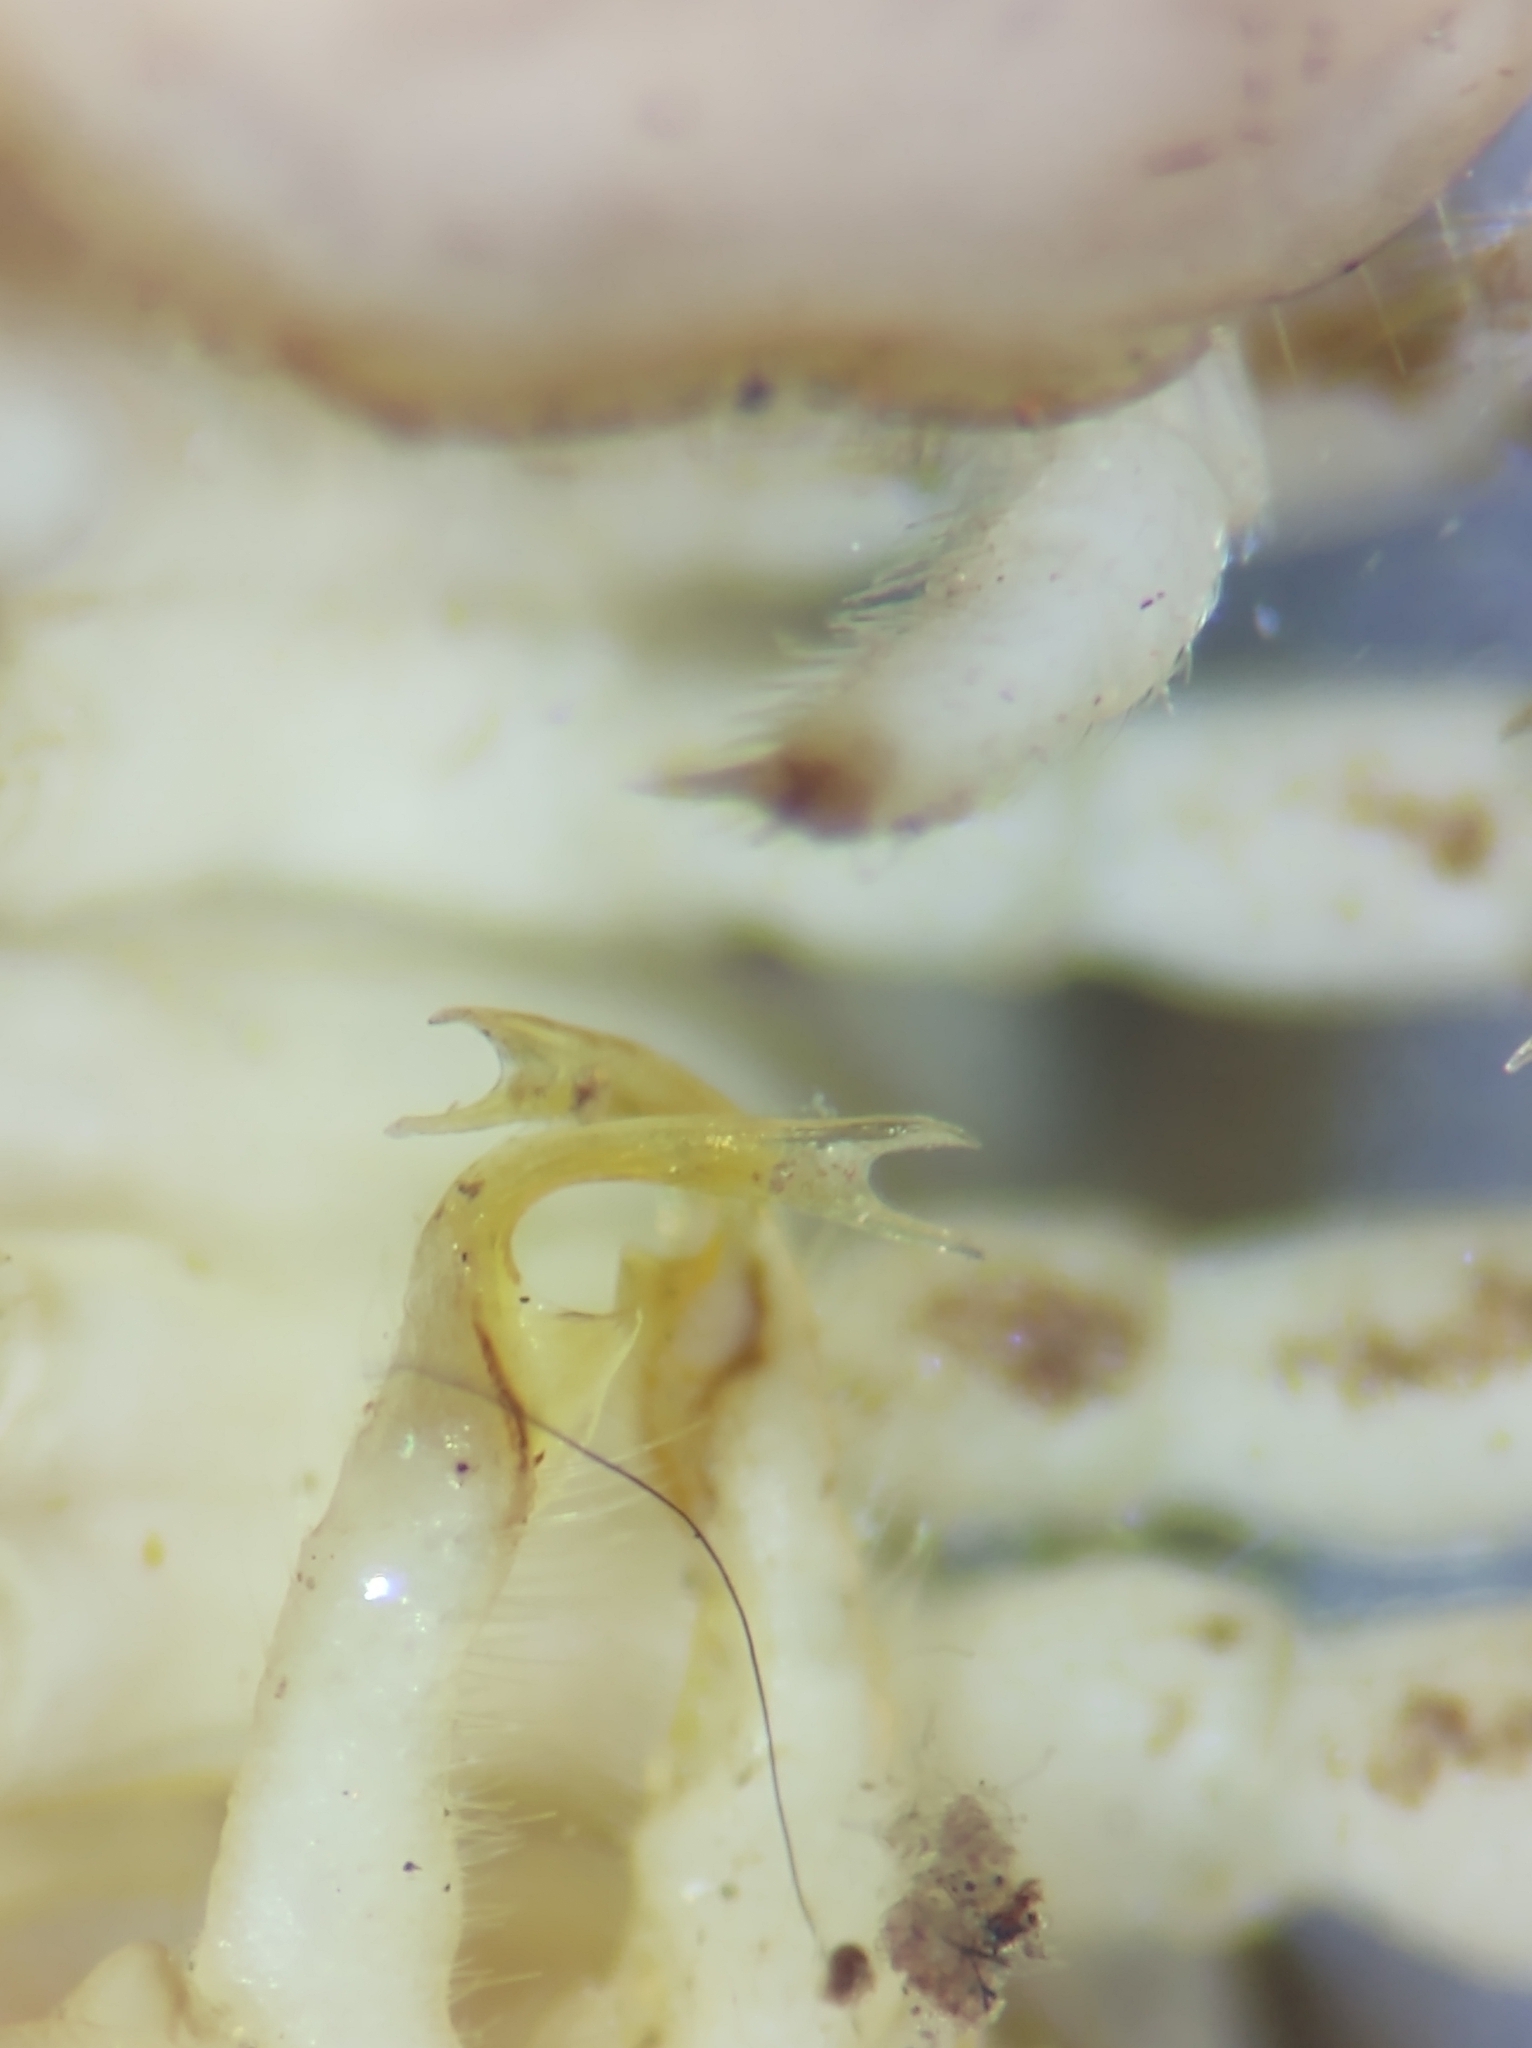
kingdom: Animalia
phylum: Arthropoda
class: Diplopoda
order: Polydesmida
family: Xystodesmidae
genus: Euryurus
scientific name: Euryurus orestes
